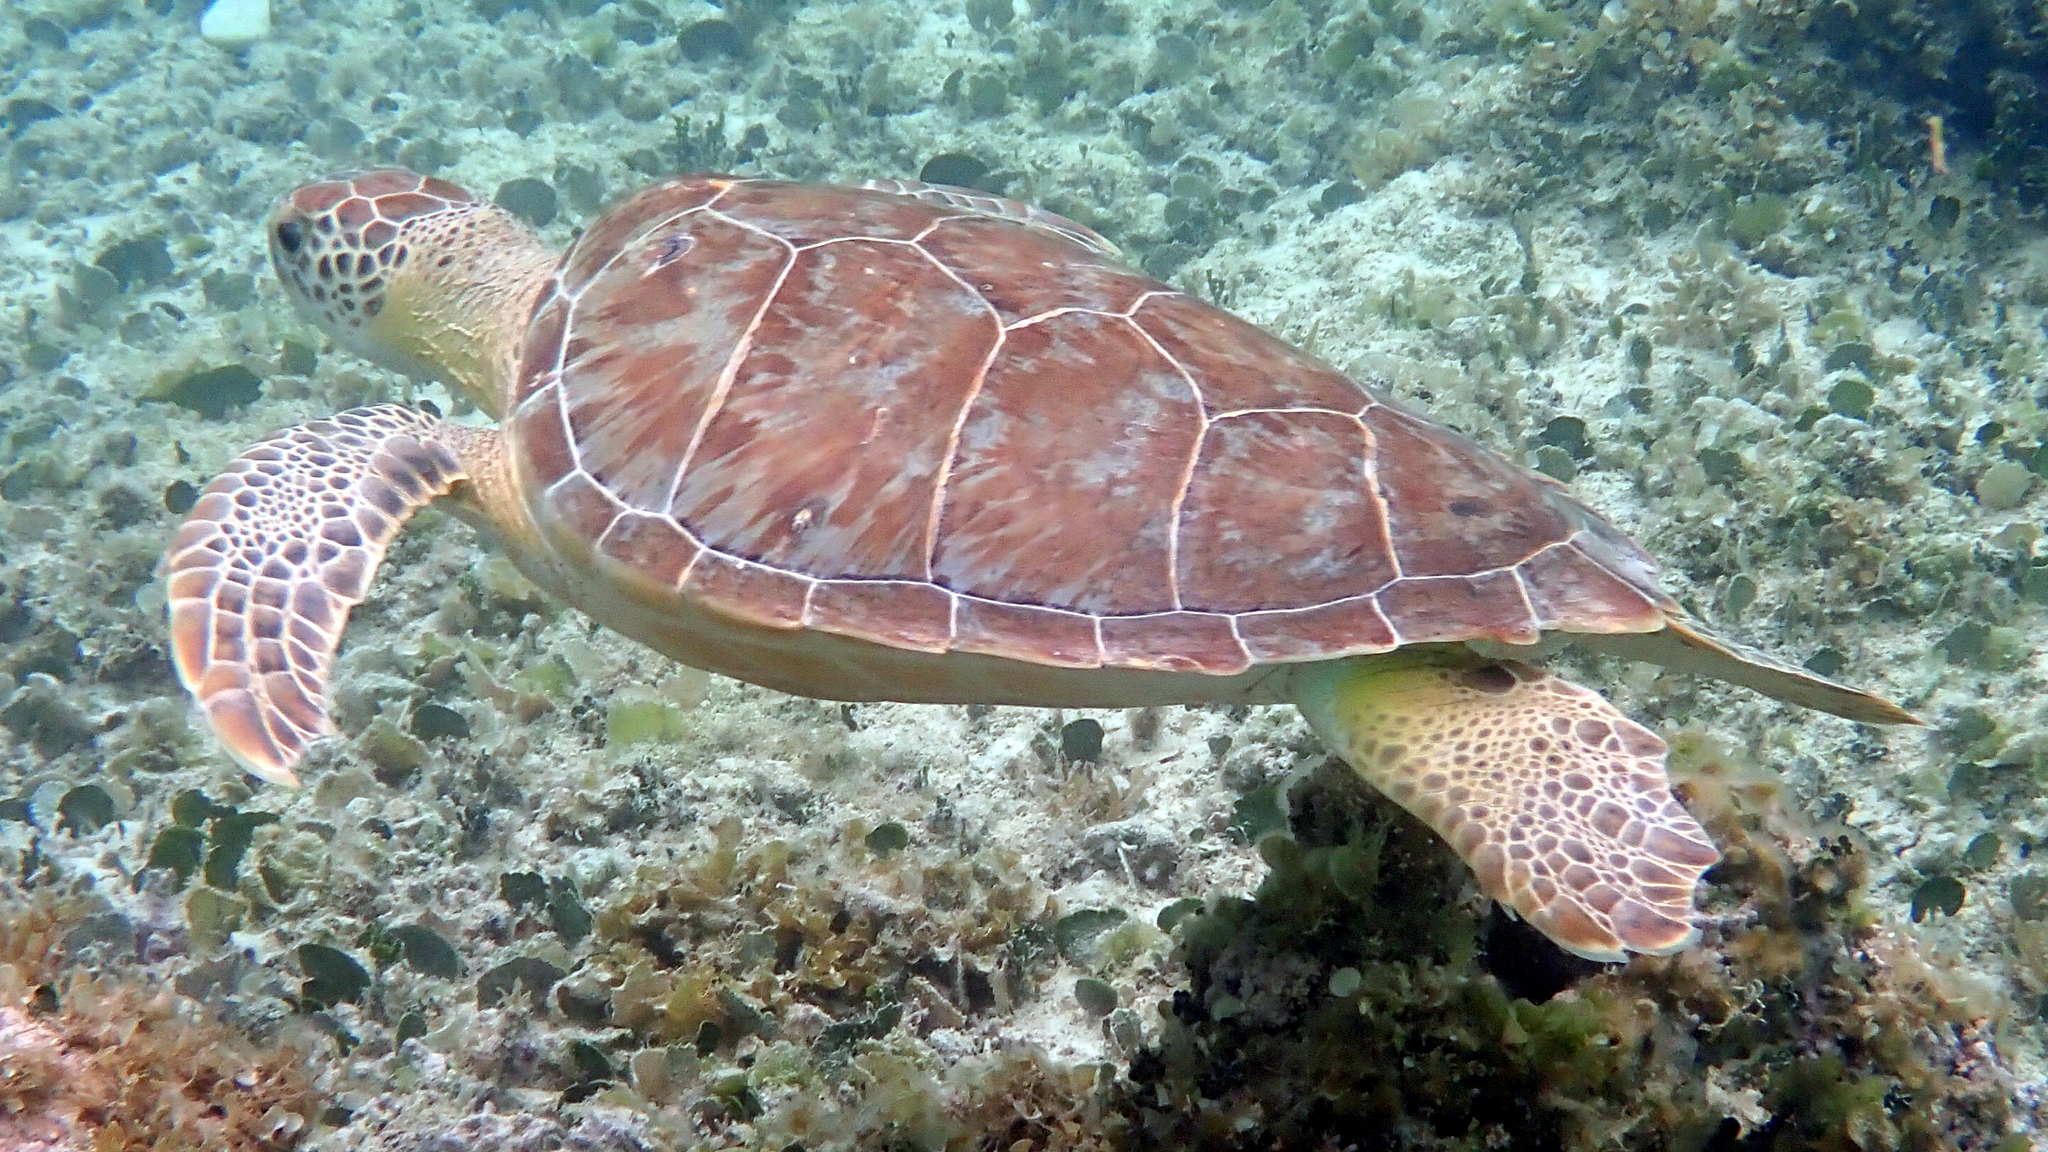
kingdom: Animalia
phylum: Chordata
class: Testudines
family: Cheloniidae
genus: Chelonia
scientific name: Chelonia mydas
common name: Green turtle
